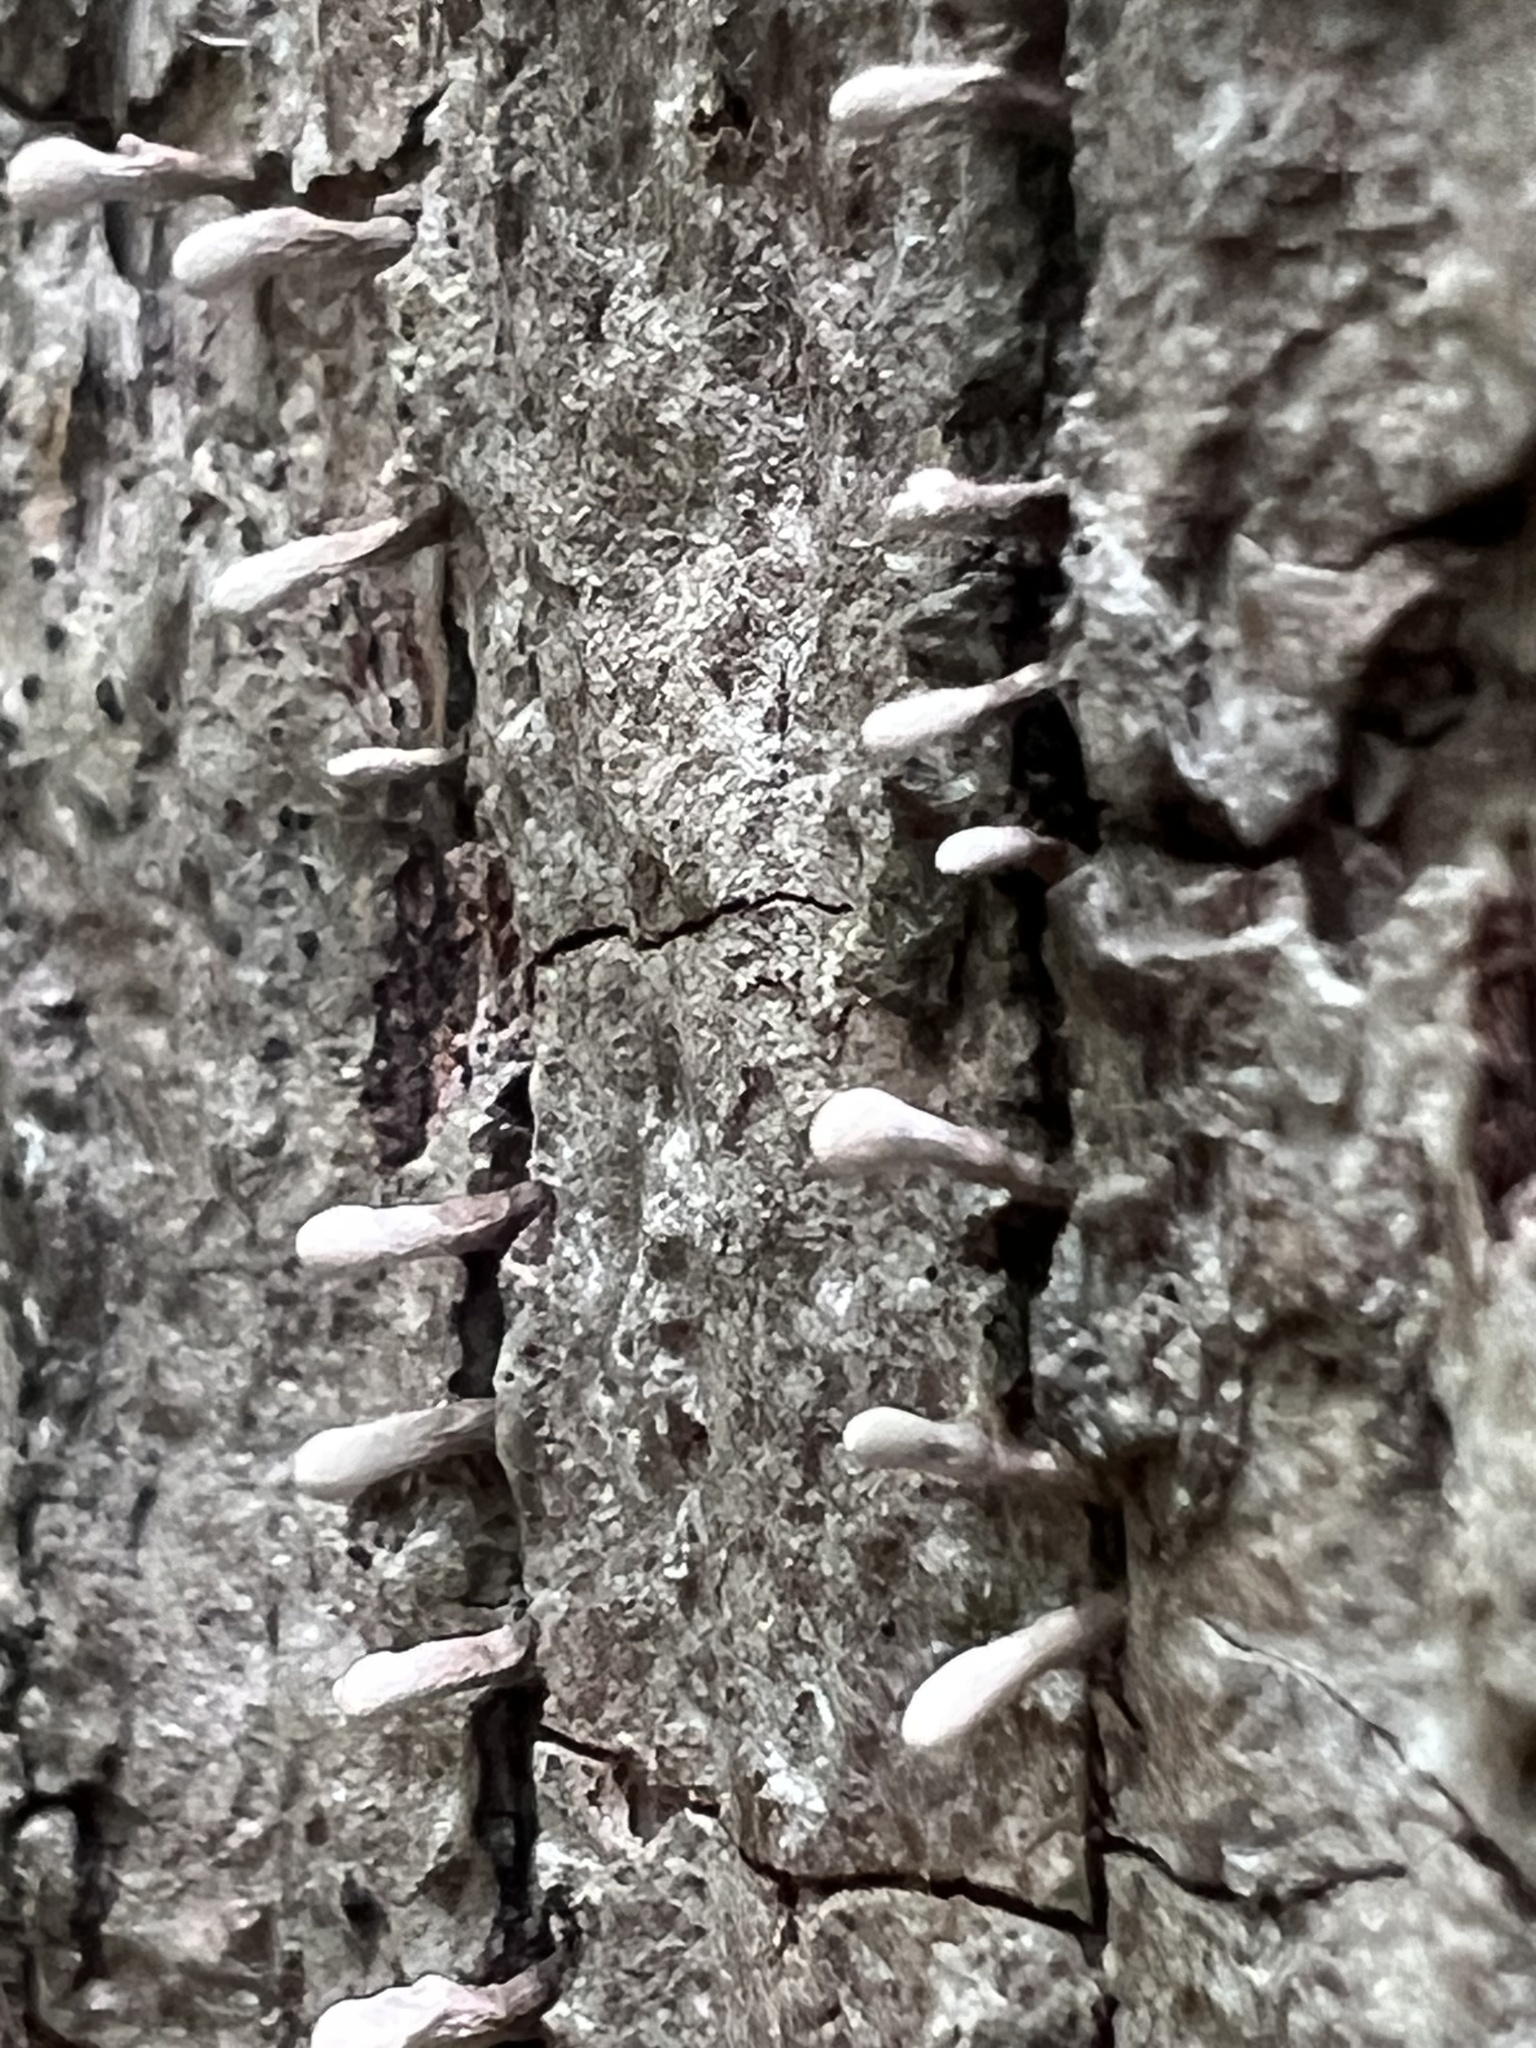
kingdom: Fungi
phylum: Basidiomycota
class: Atractiellomycetes
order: Atractiellales
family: Phleogenaceae
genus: Phleogena
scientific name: Phleogena faginea
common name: Fenugreek stalkball
